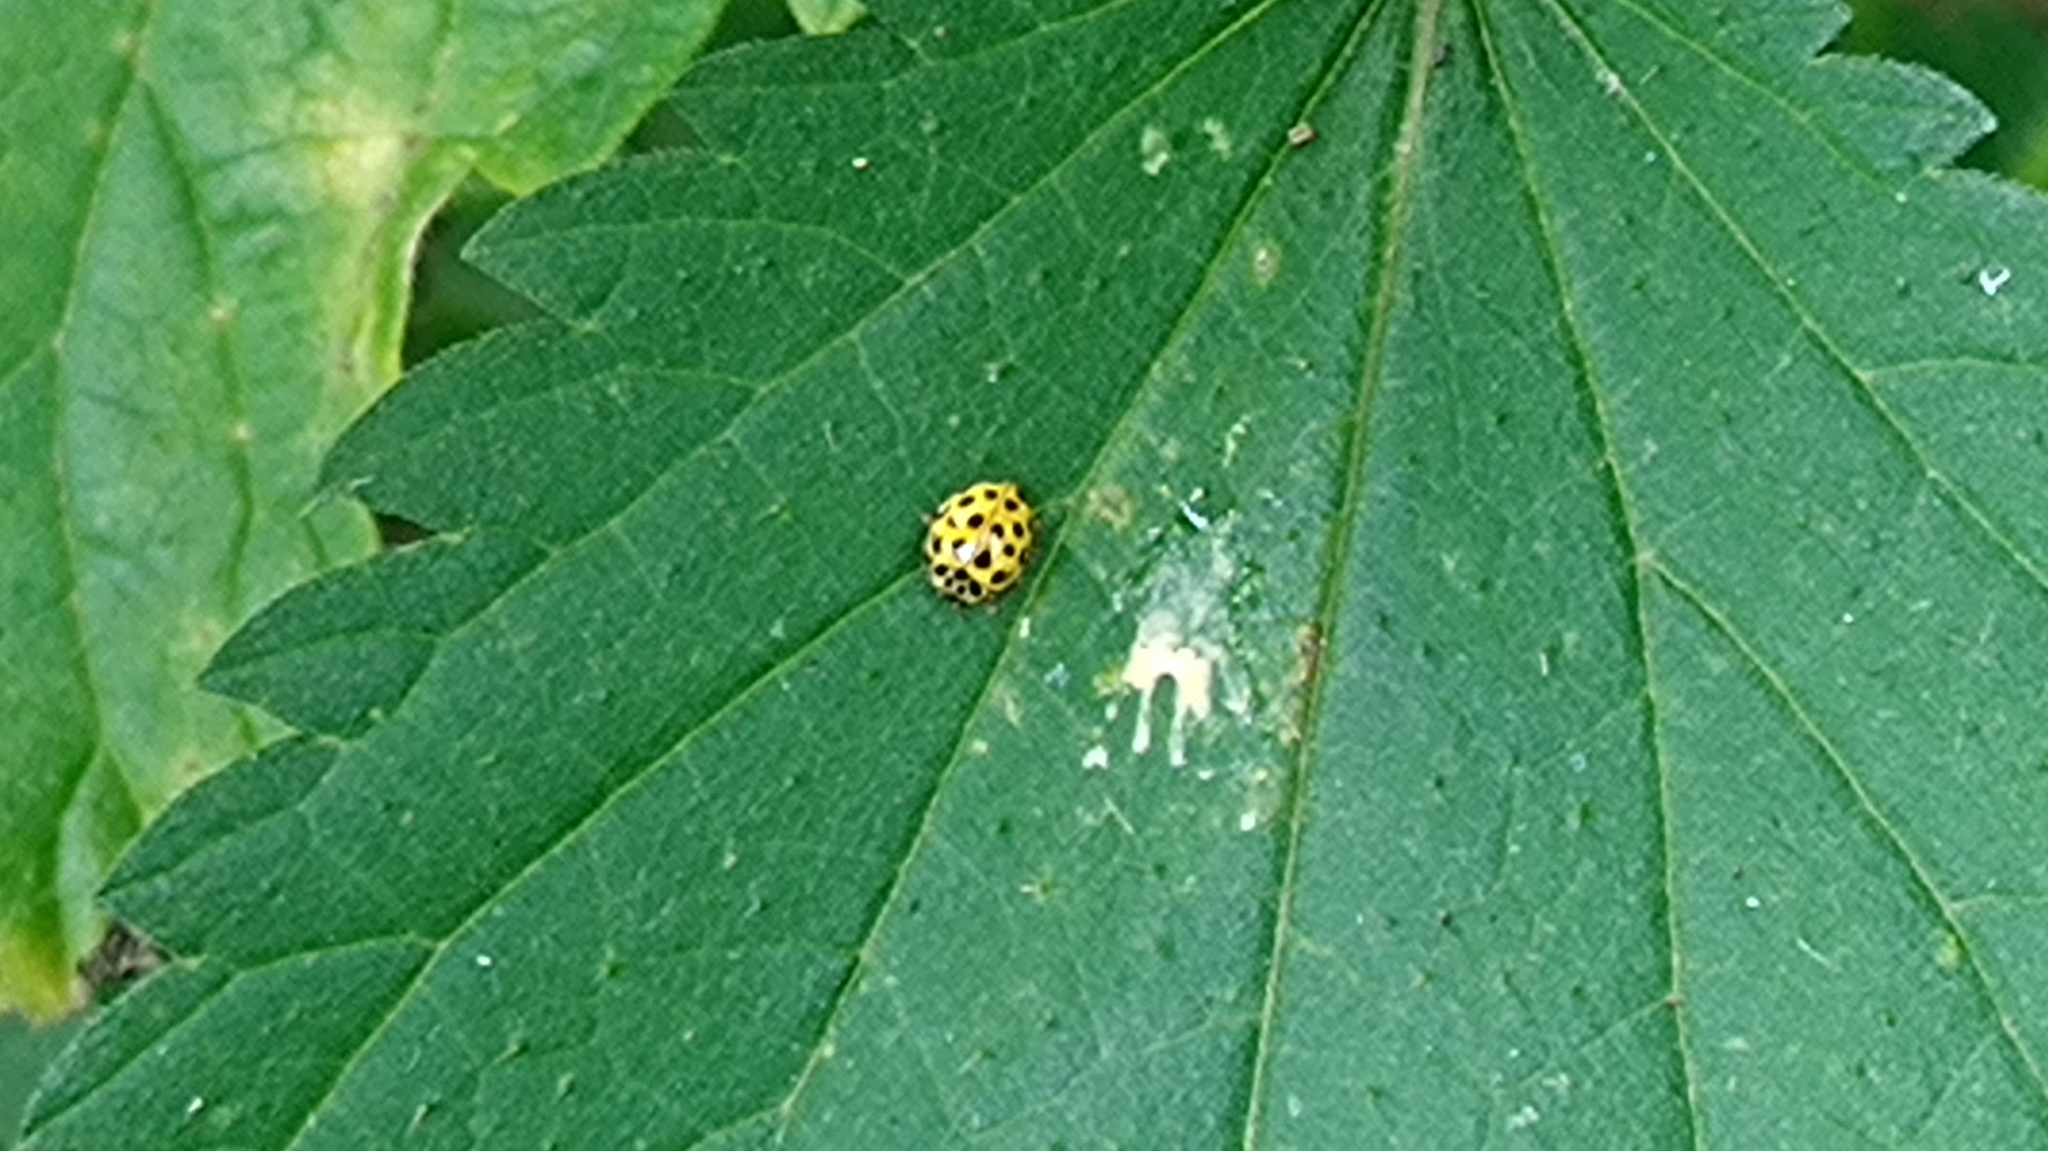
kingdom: Animalia
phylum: Arthropoda
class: Insecta
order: Coleoptera
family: Coccinellidae
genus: Psyllobora
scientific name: Psyllobora vigintiduopunctata
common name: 22-spot ladybird
